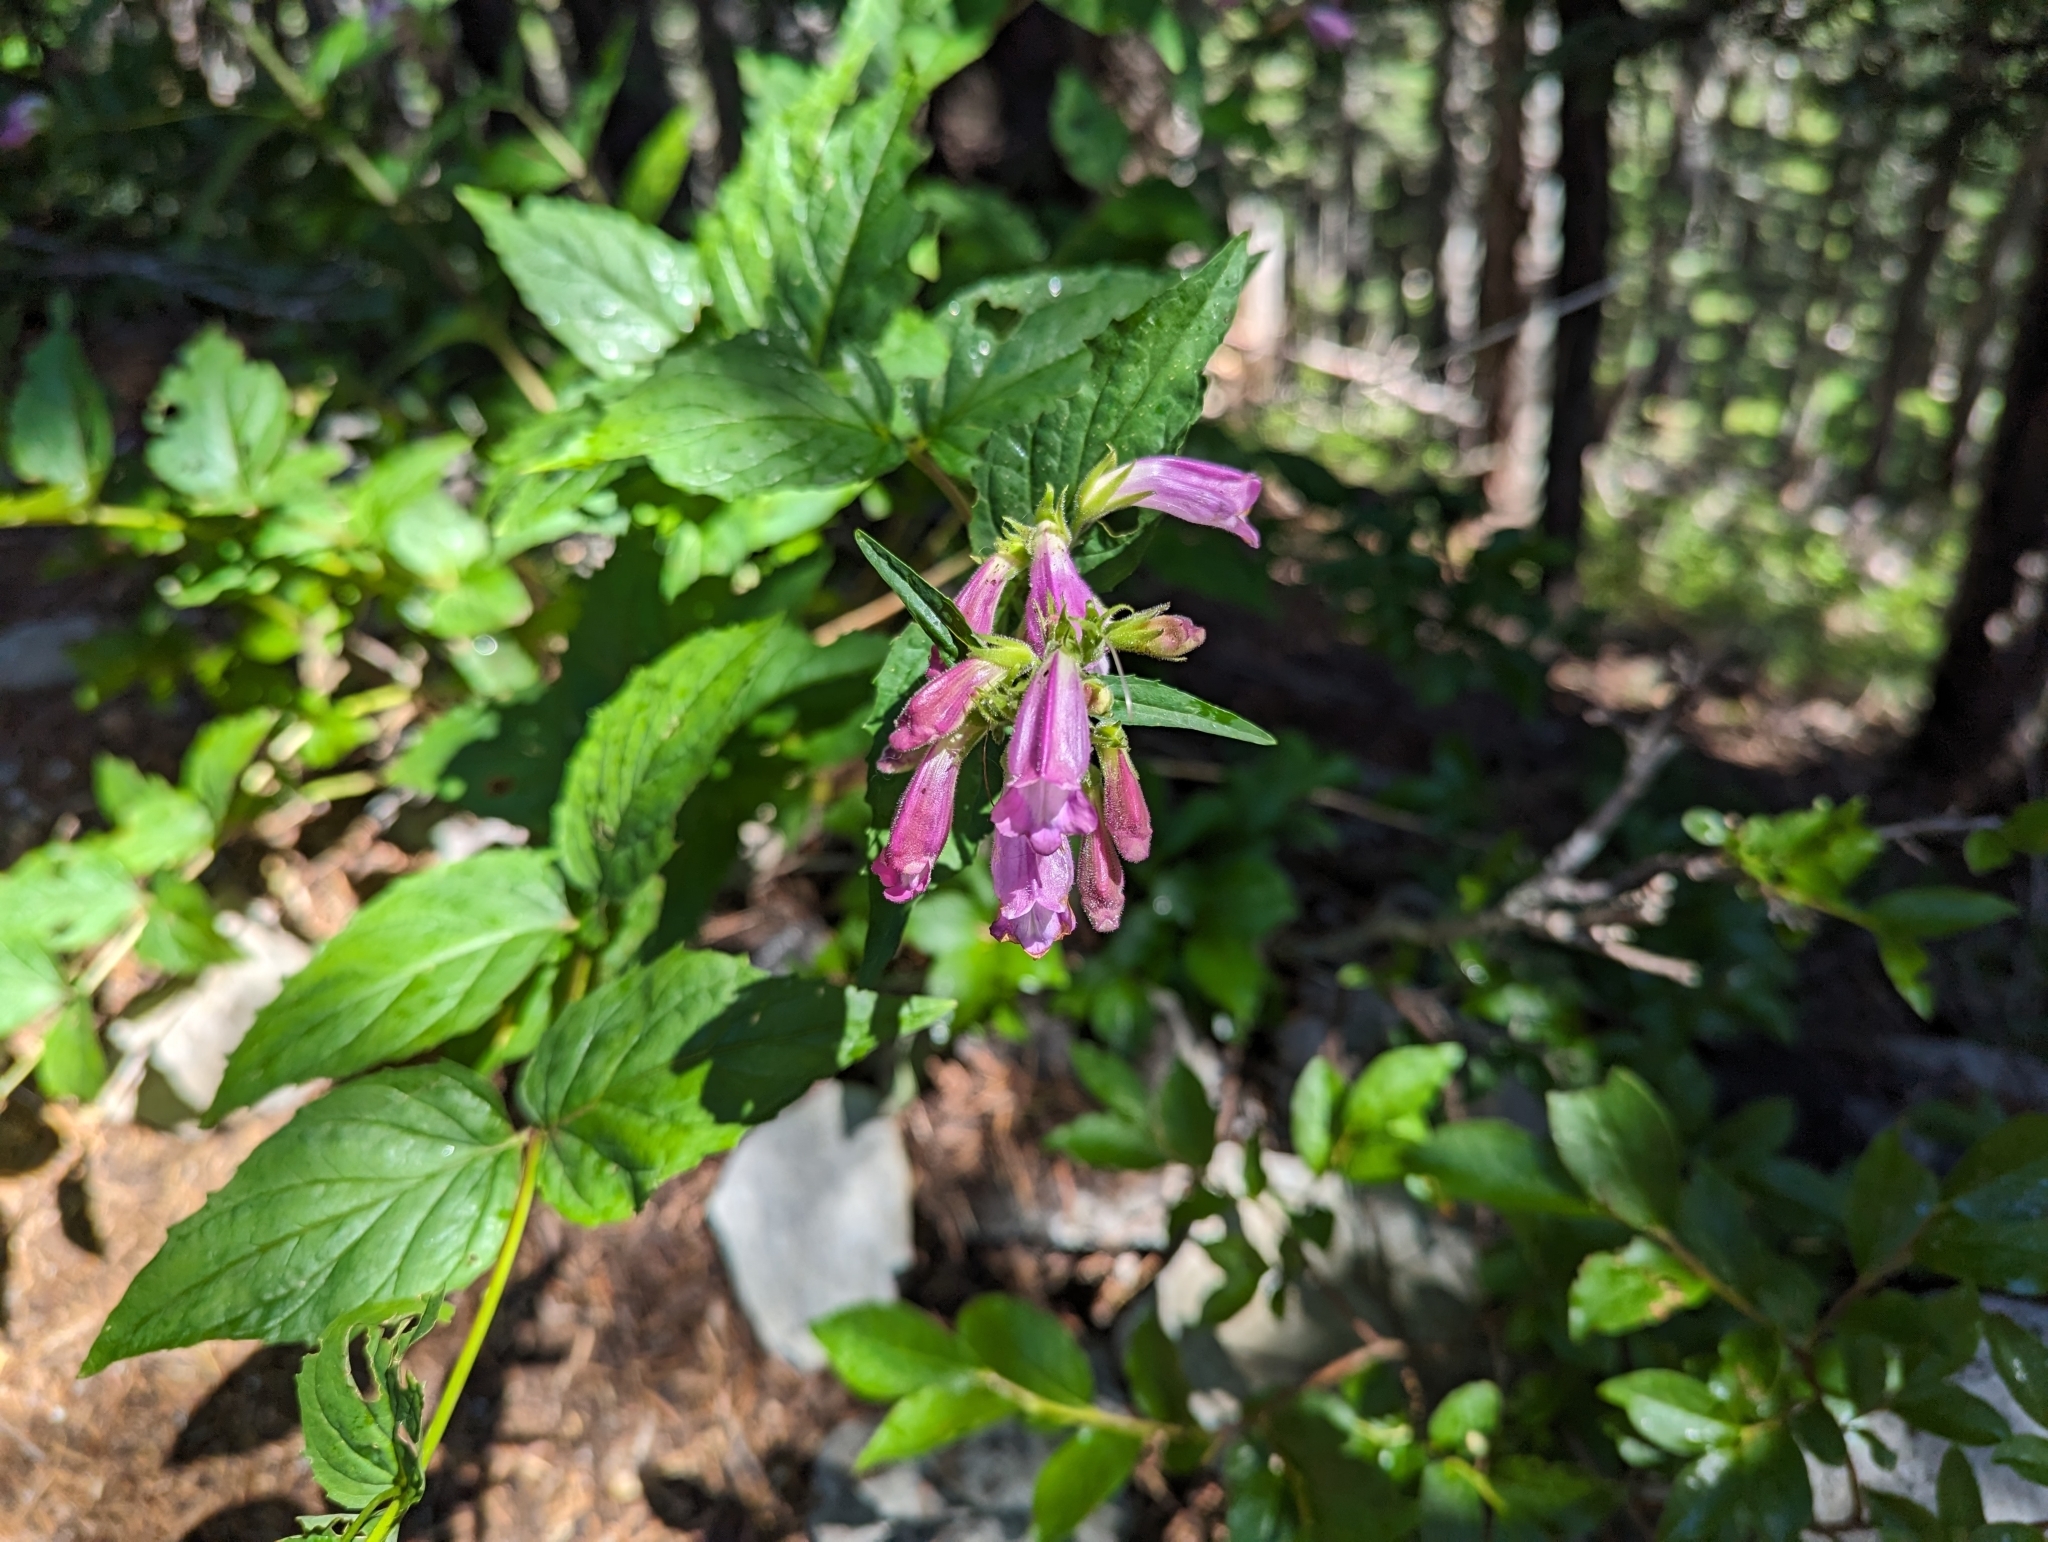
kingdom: Plantae
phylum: Tracheophyta
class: Magnoliopsida
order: Lamiales
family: Plantaginaceae
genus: Nothochelone
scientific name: Nothochelone nemorosa
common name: Woodland beardtongue
